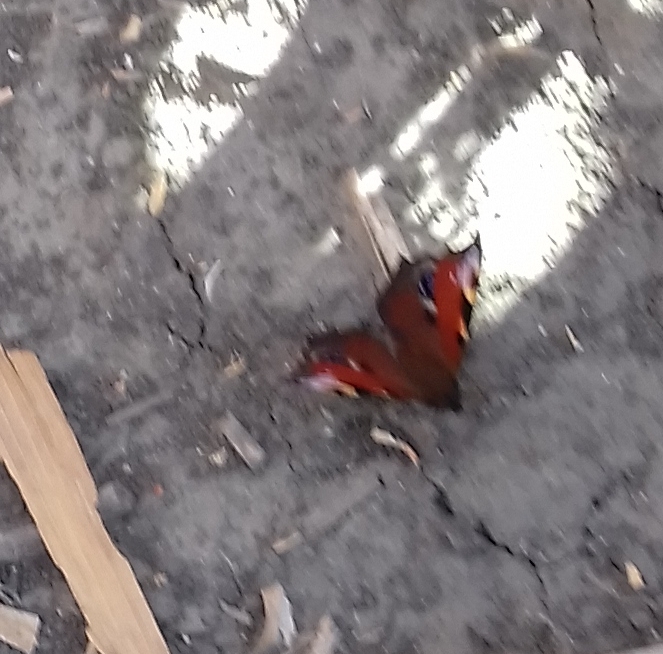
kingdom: Animalia
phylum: Arthropoda
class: Insecta
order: Lepidoptera
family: Nymphalidae
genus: Aglais
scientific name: Aglais io
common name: Peacock
